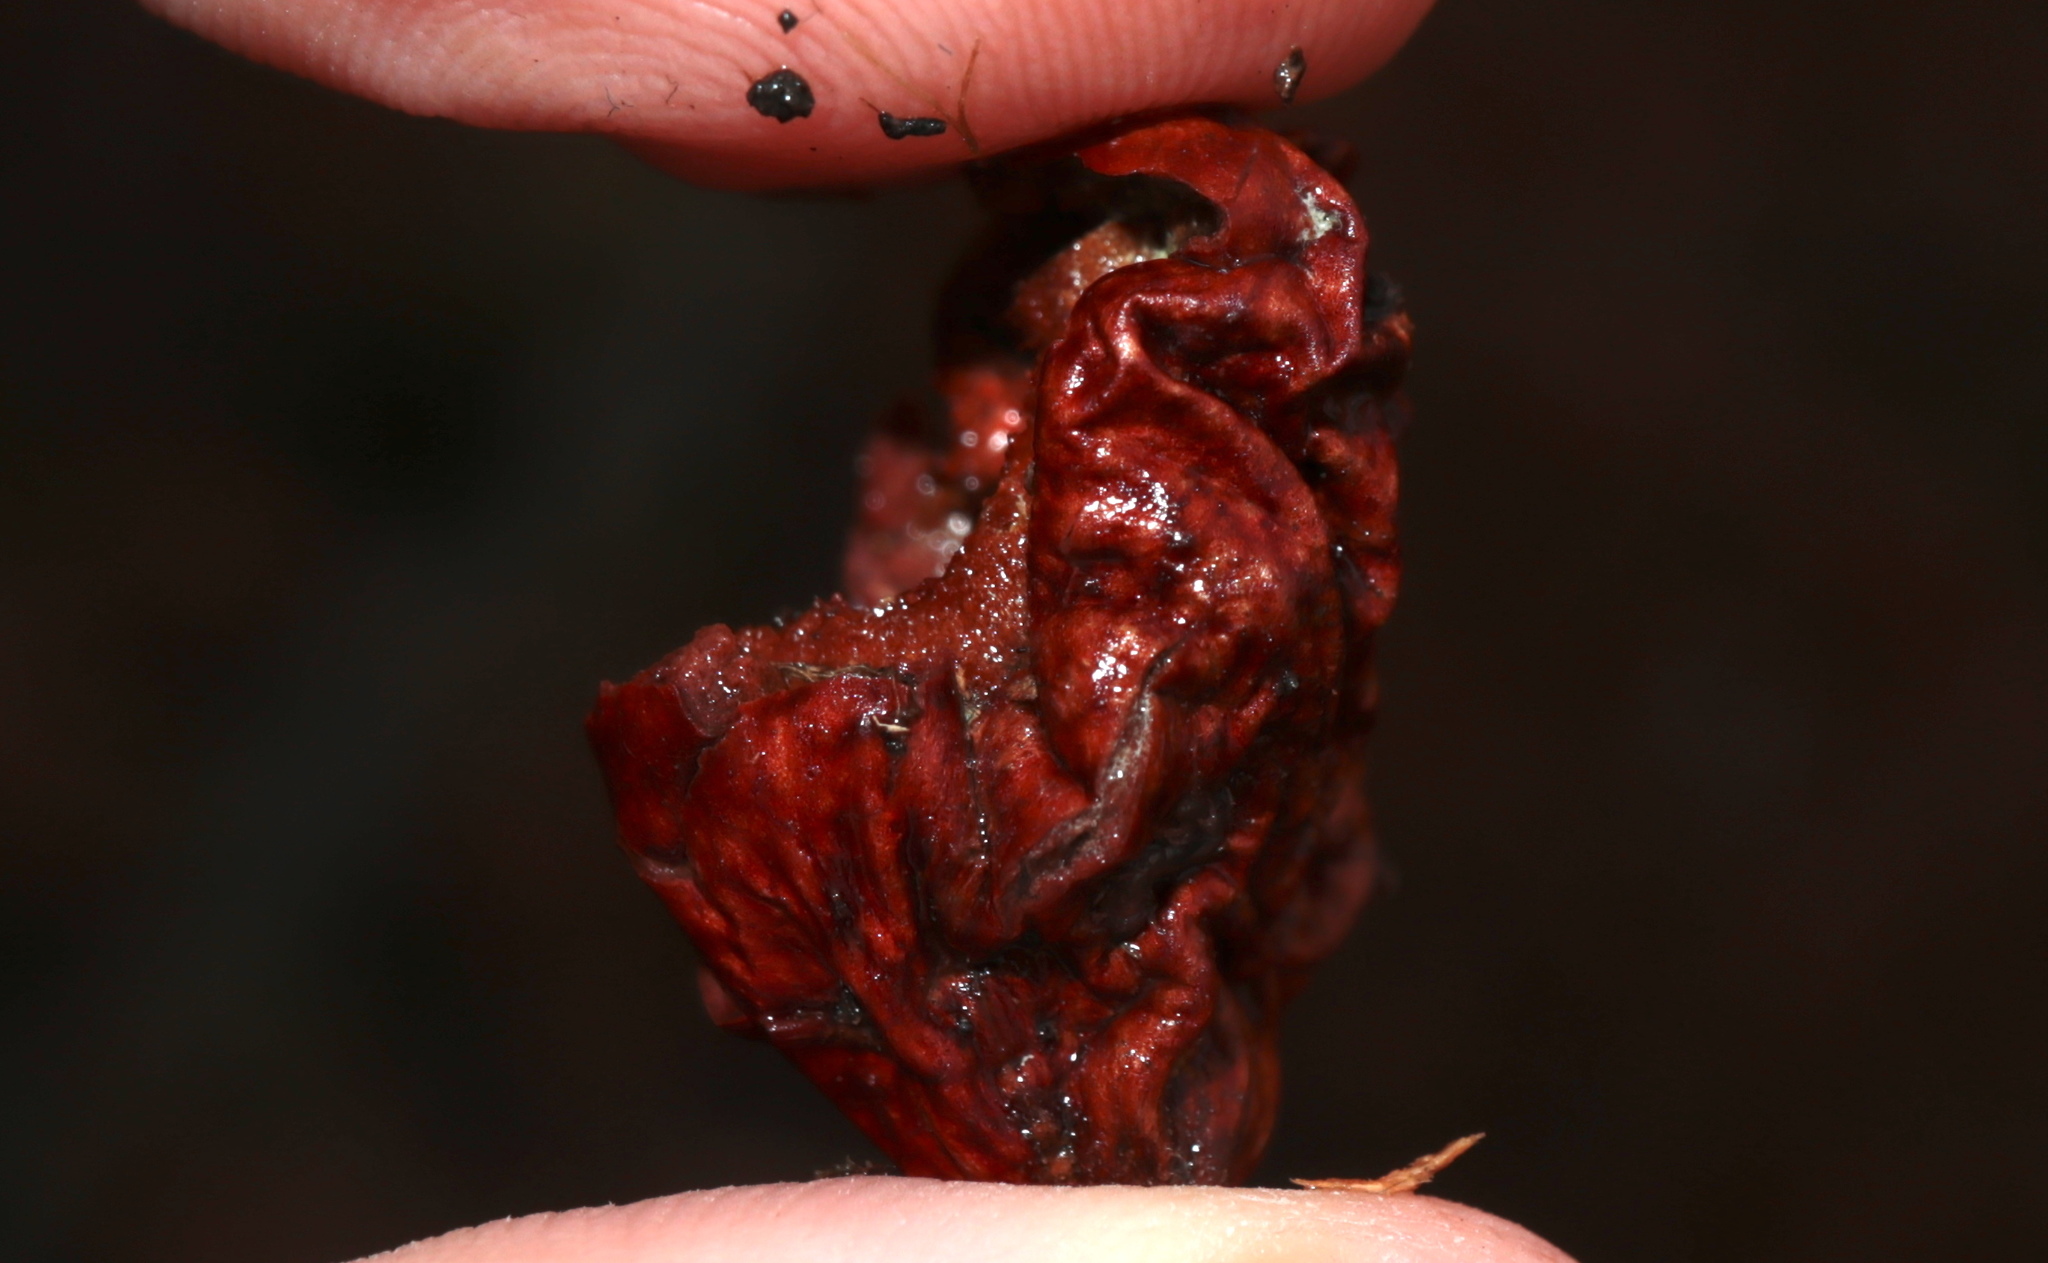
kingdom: Animalia
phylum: Arthropoda
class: Insecta
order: Hymenoptera
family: Cynipidae
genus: Amphibolips
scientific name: Amphibolips
